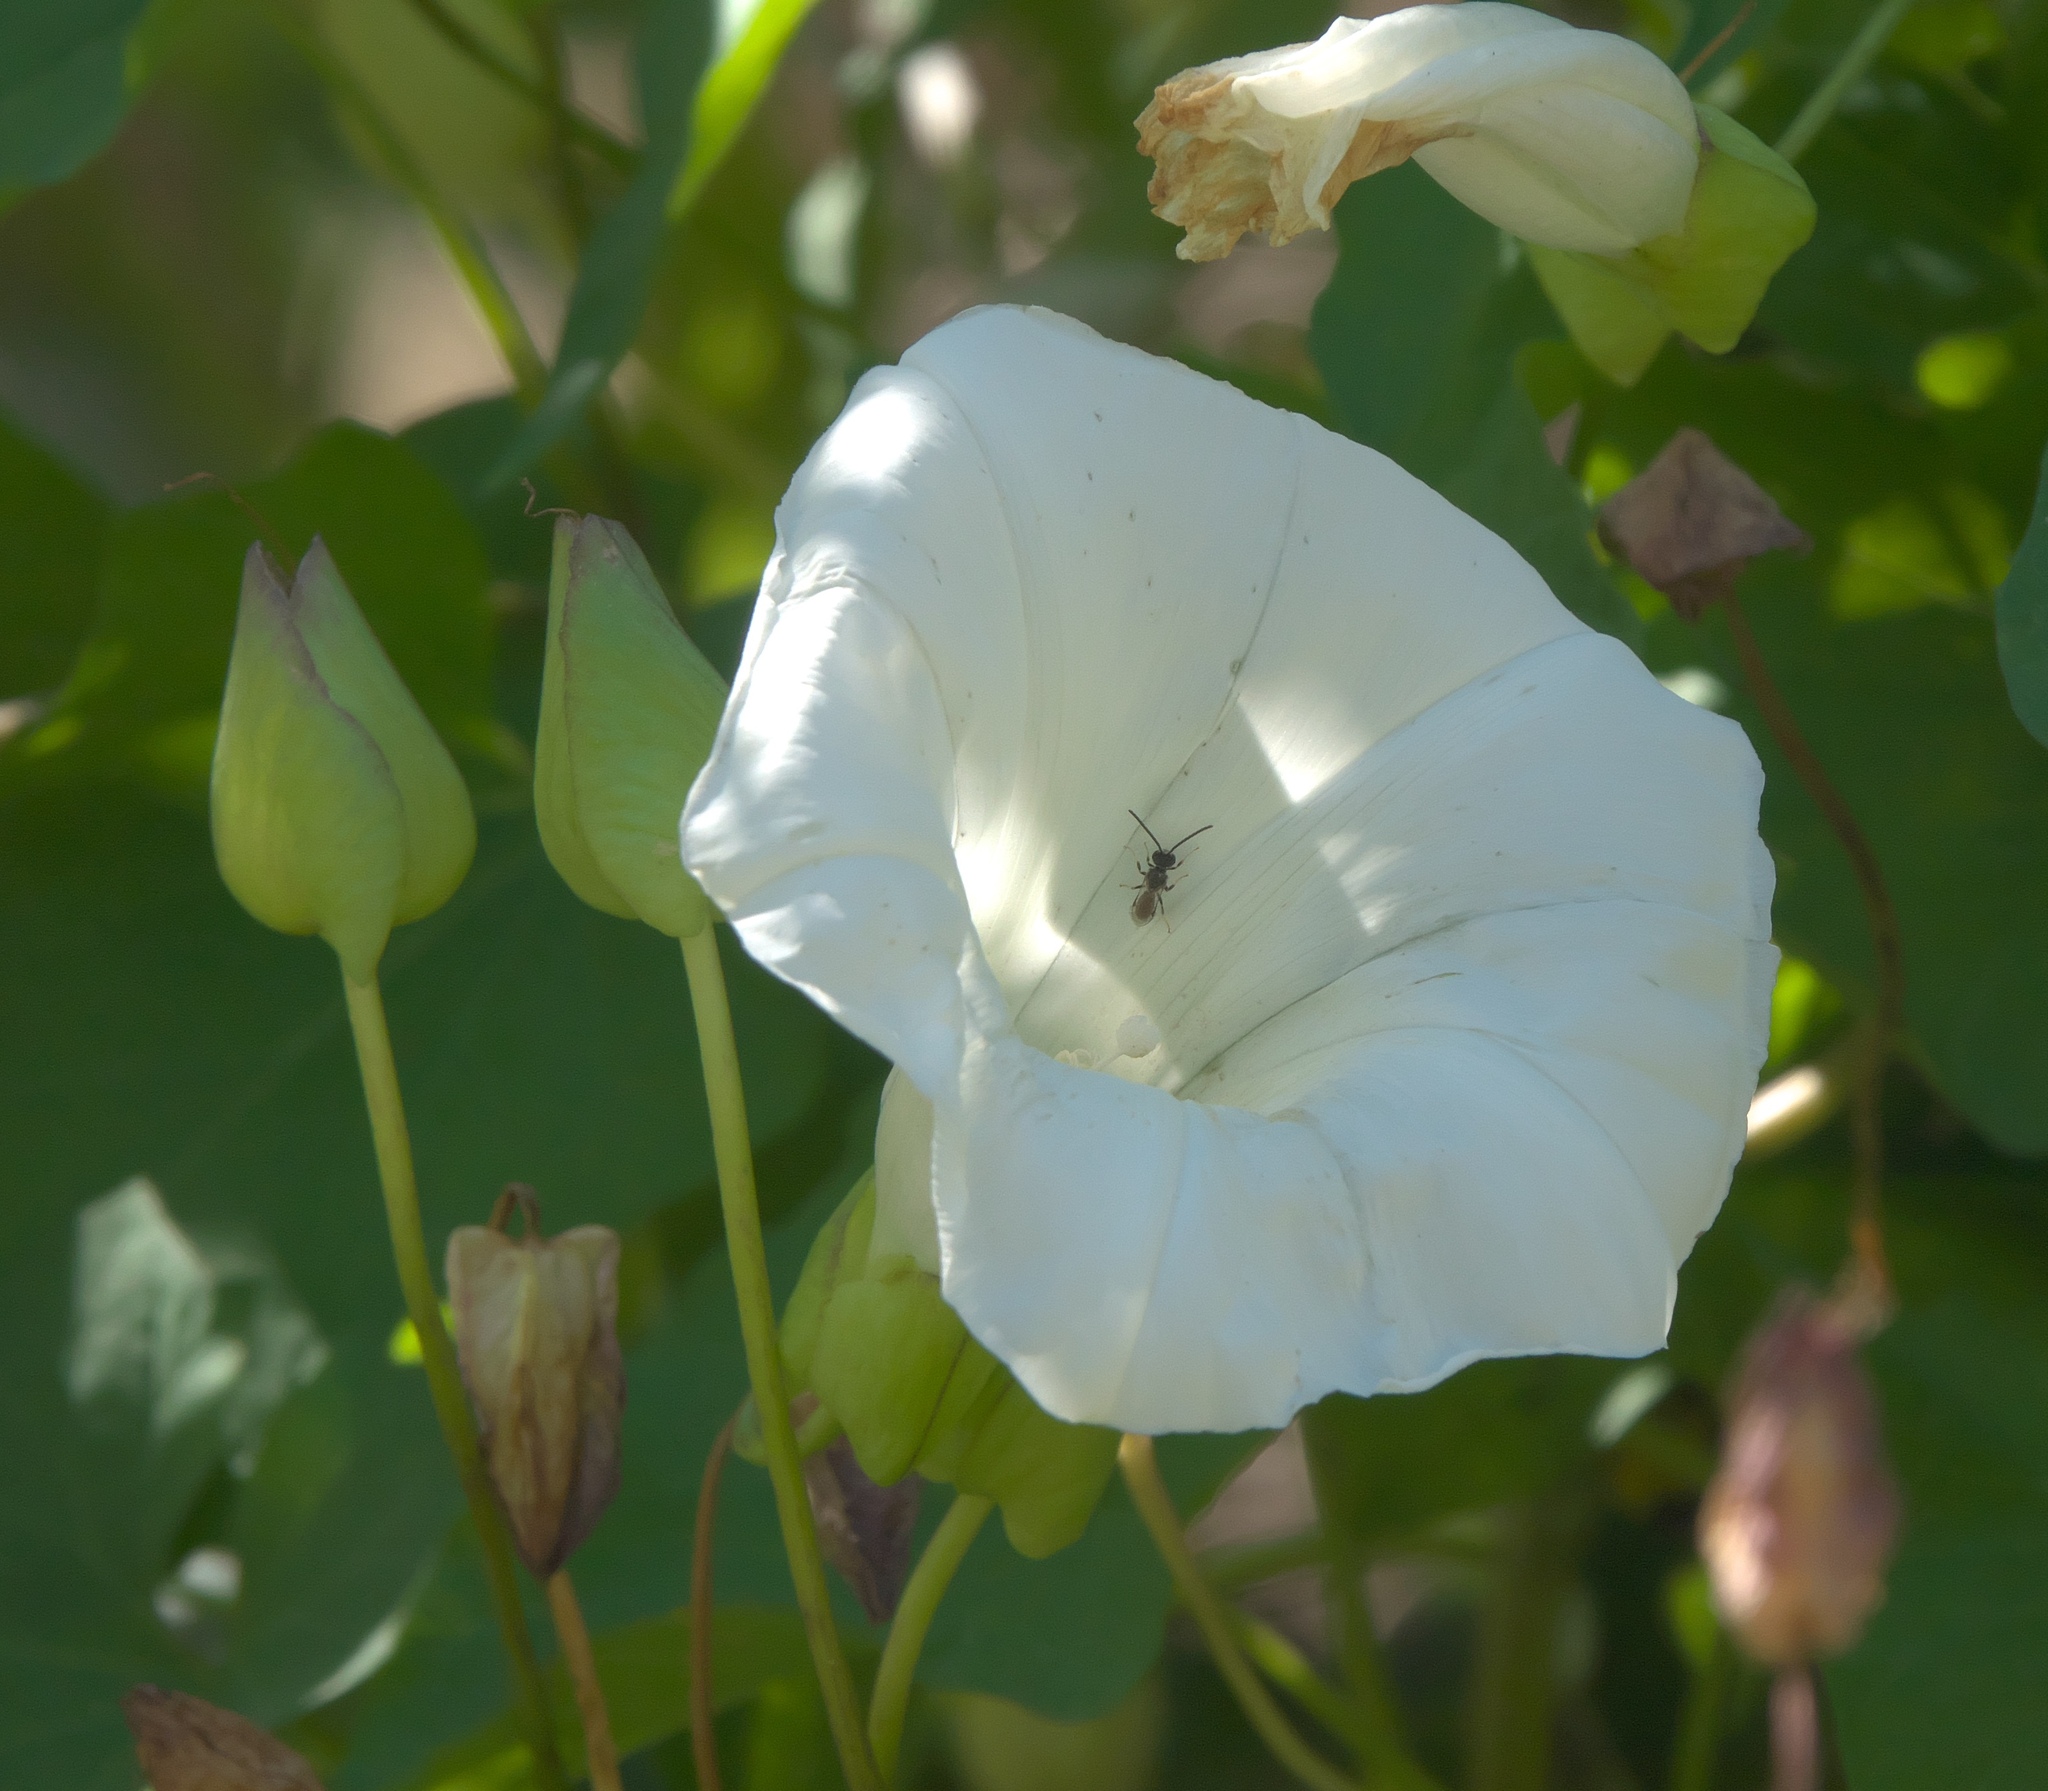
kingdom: Plantae
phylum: Tracheophyta
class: Magnoliopsida
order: Solanales
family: Convolvulaceae
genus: Calystegia
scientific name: Calystegia silvatica
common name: Large bindweed
